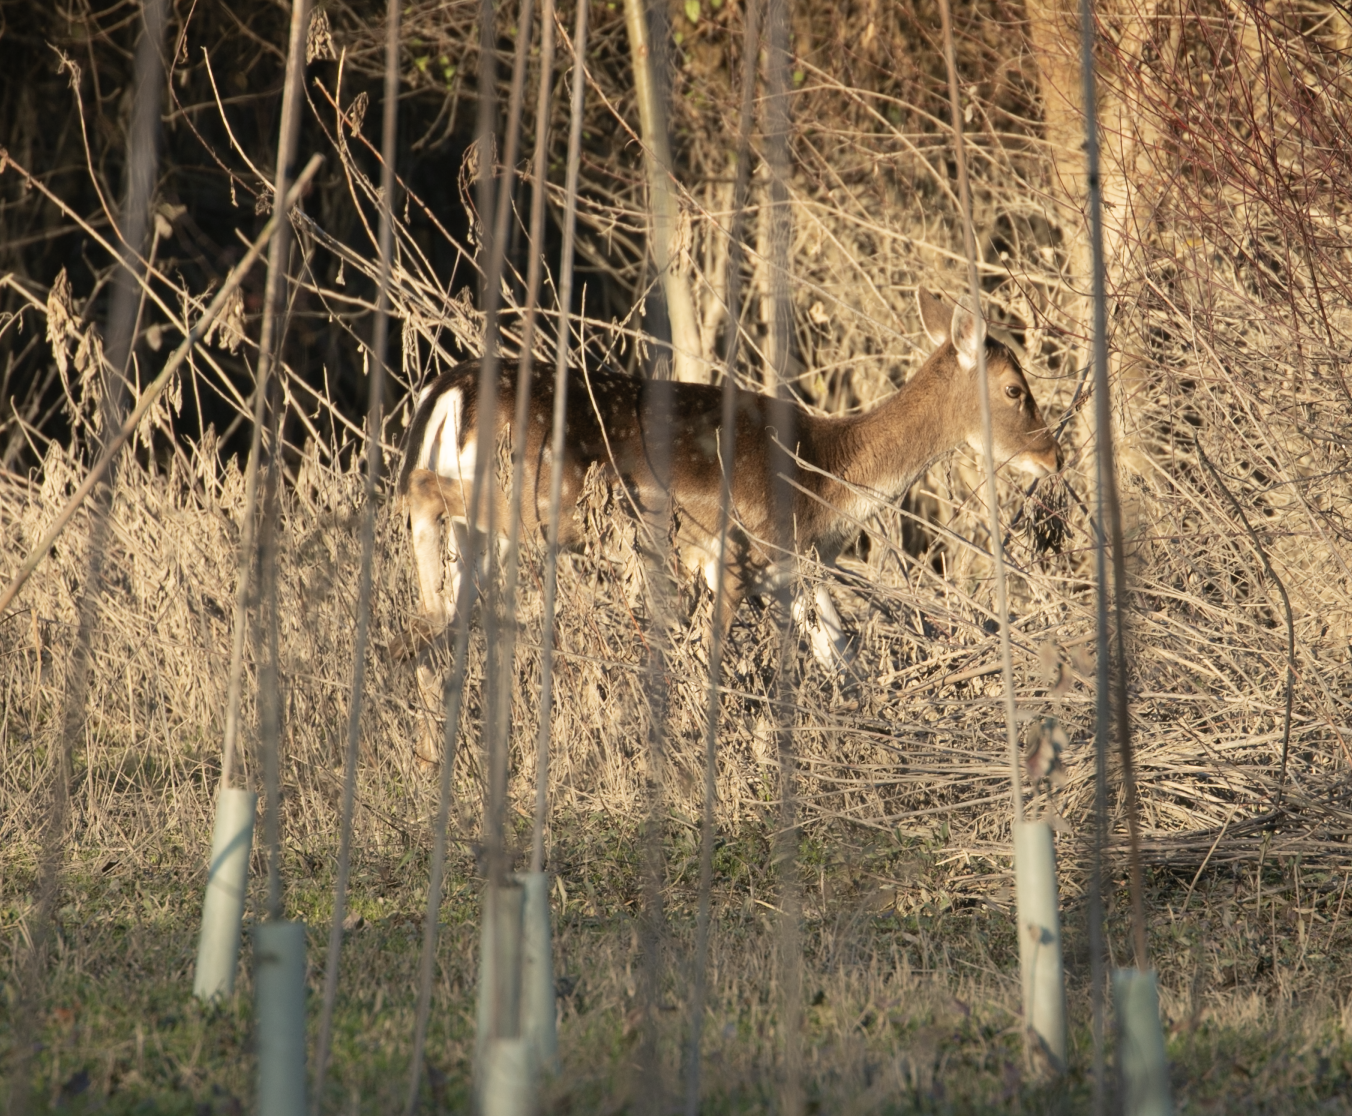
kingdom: Animalia
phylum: Chordata
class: Mammalia
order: Artiodactyla
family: Cervidae
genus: Dama
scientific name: Dama dama
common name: Fallow deer
